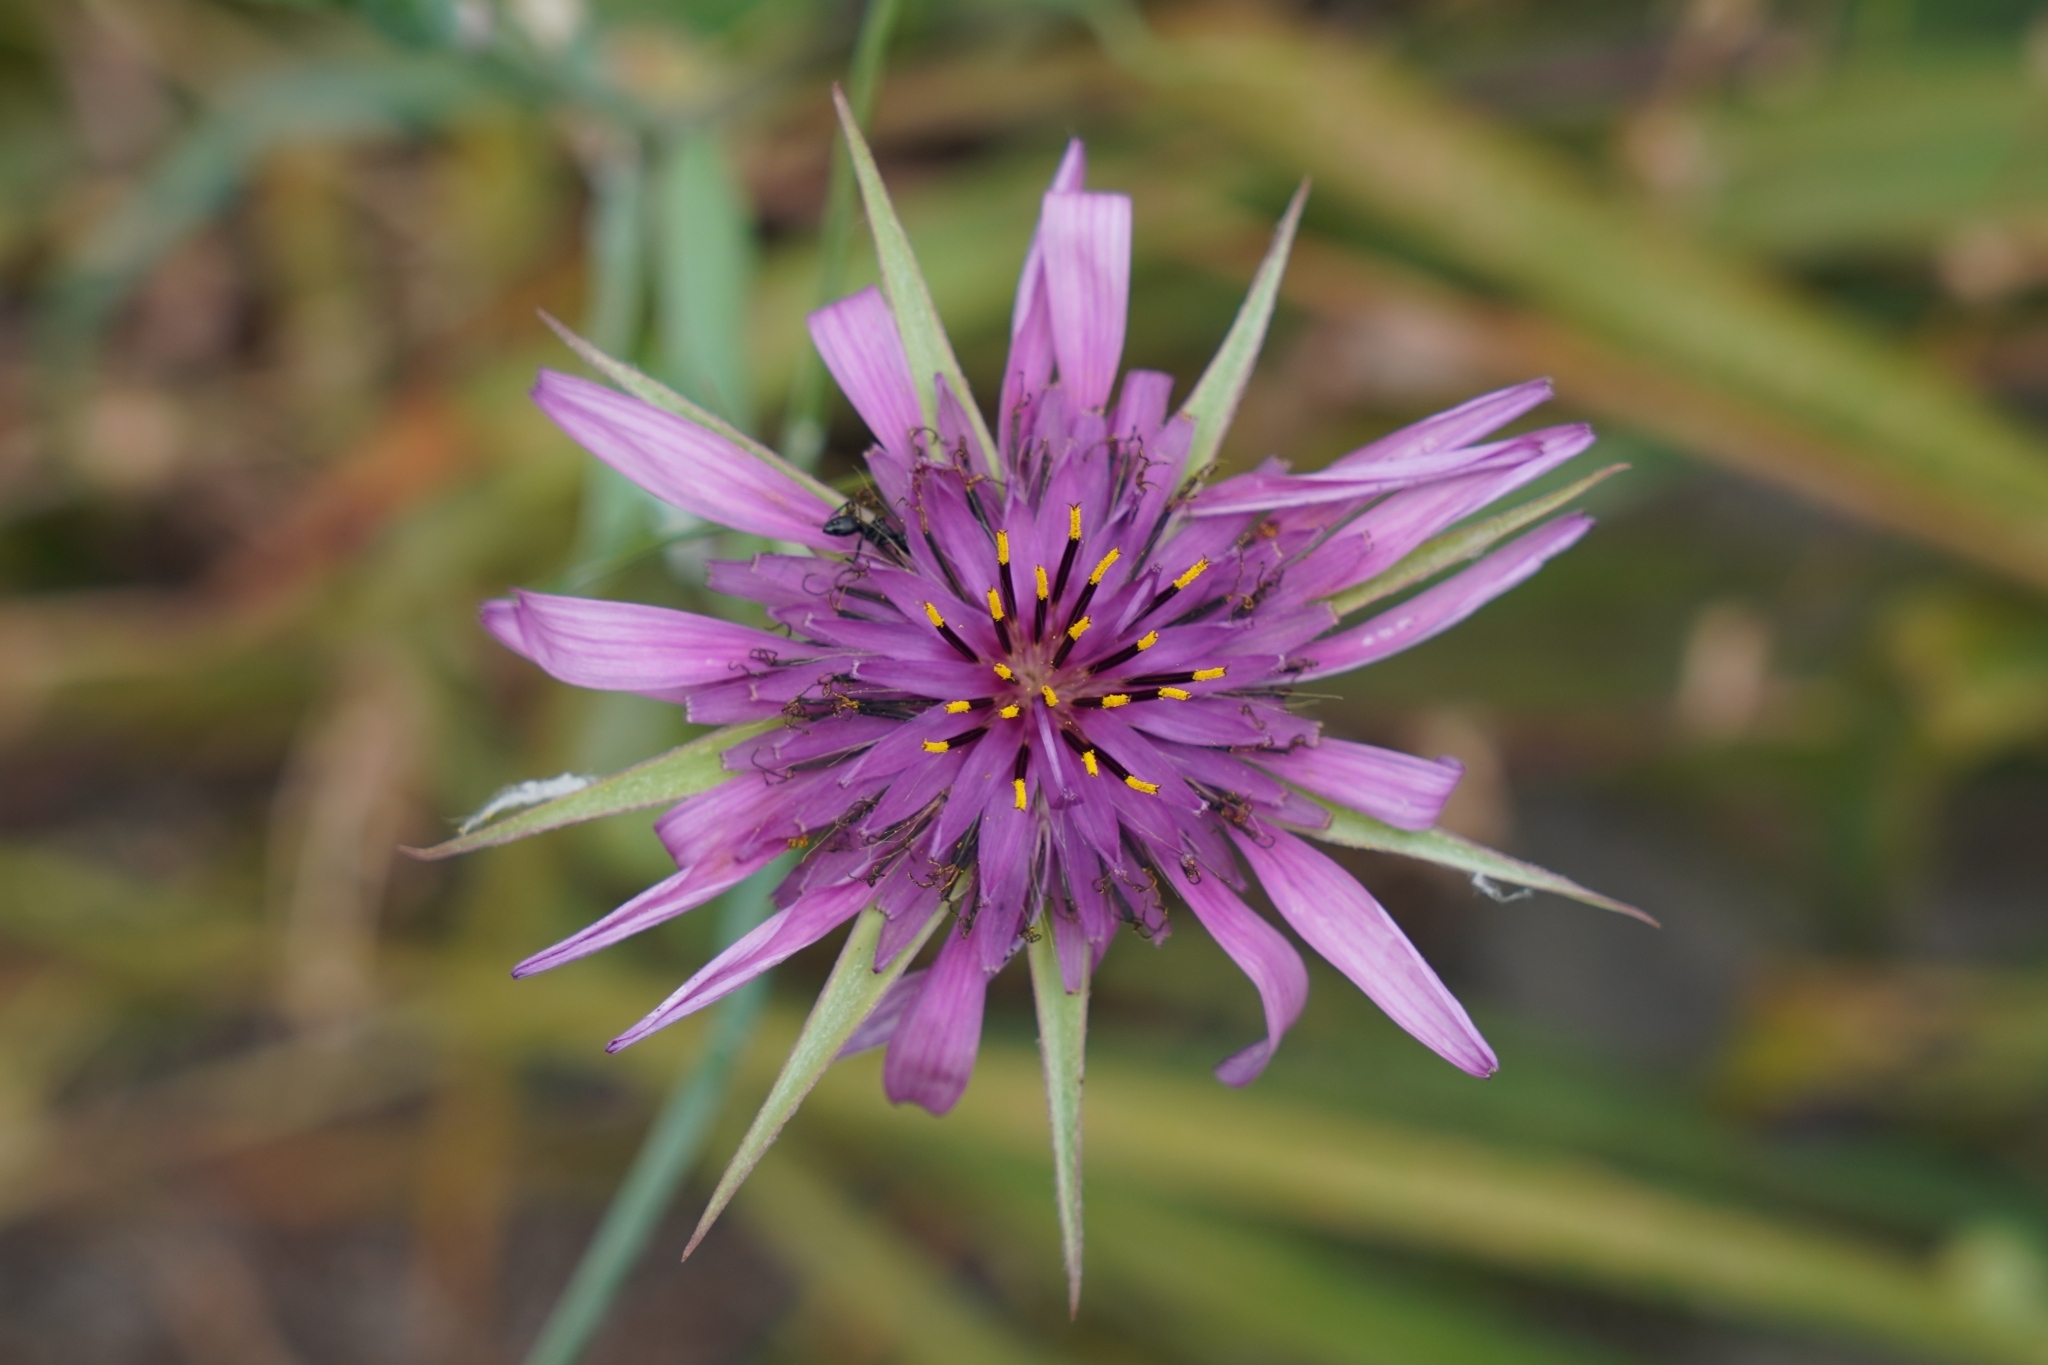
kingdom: Plantae
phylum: Tracheophyta
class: Magnoliopsida
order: Asterales
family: Asteraceae
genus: Tragopogon
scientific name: Tragopogon porrifolius
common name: Salsify
